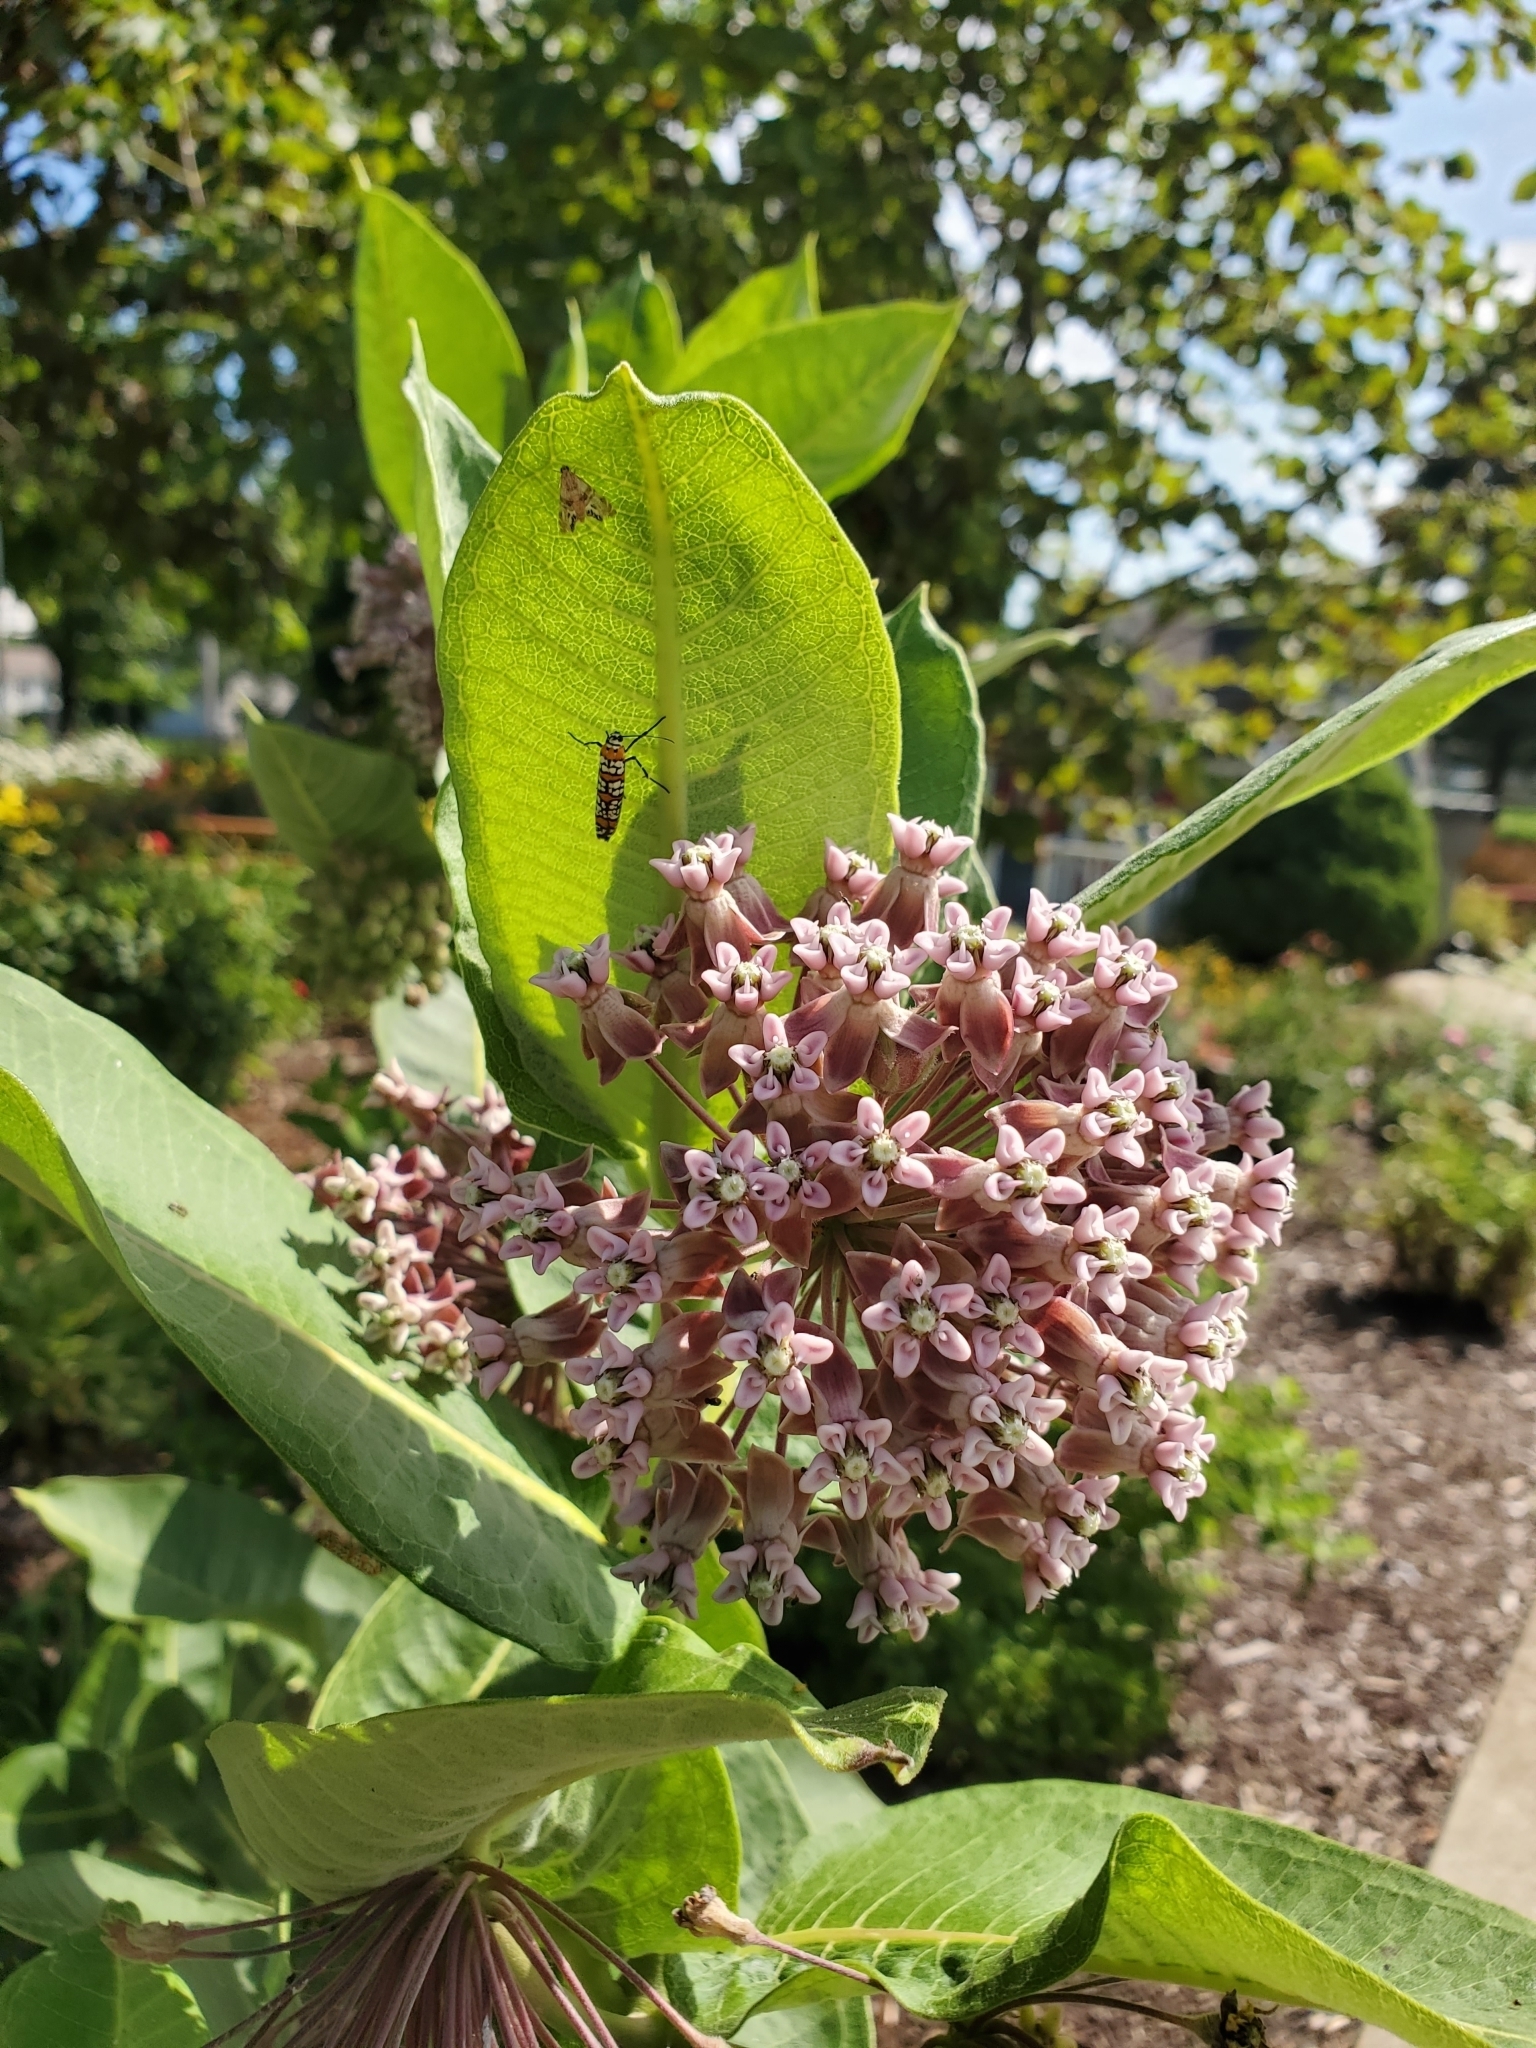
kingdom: Animalia
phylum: Arthropoda
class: Insecta
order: Lepidoptera
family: Attevidae
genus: Atteva
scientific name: Atteva punctella
